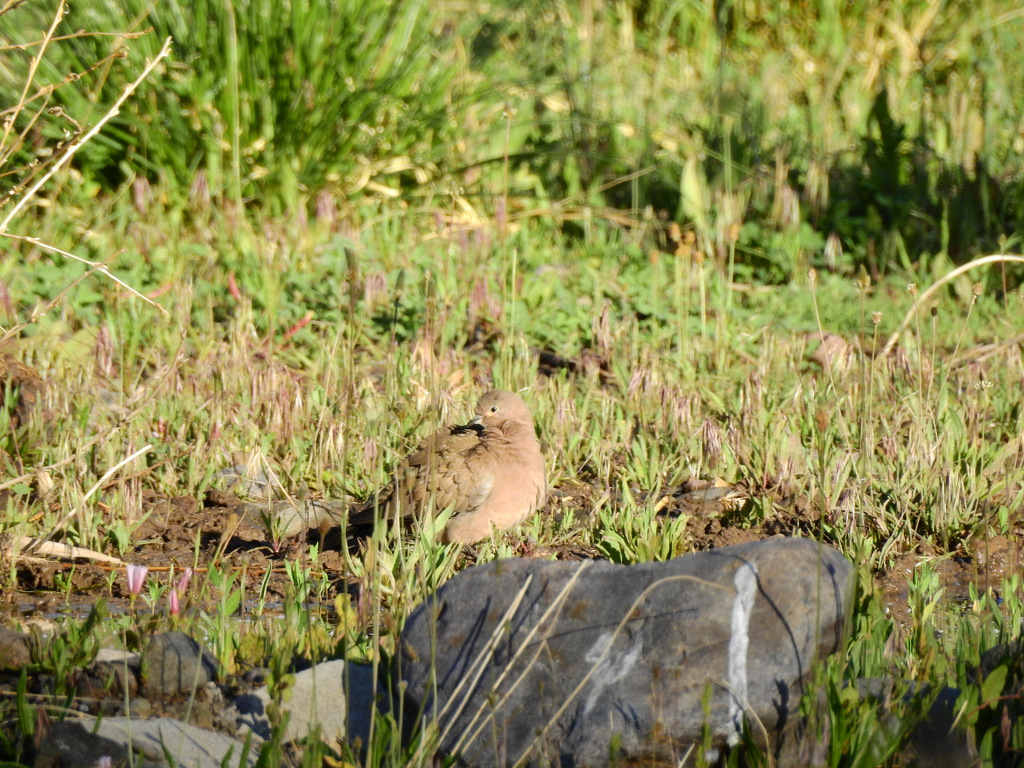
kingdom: Animalia
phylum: Chordata
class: Aves
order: Columbiformes
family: Columbidae
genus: Metriopelia
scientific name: Metriopelia melanoptera
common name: Black-winged ground dove
